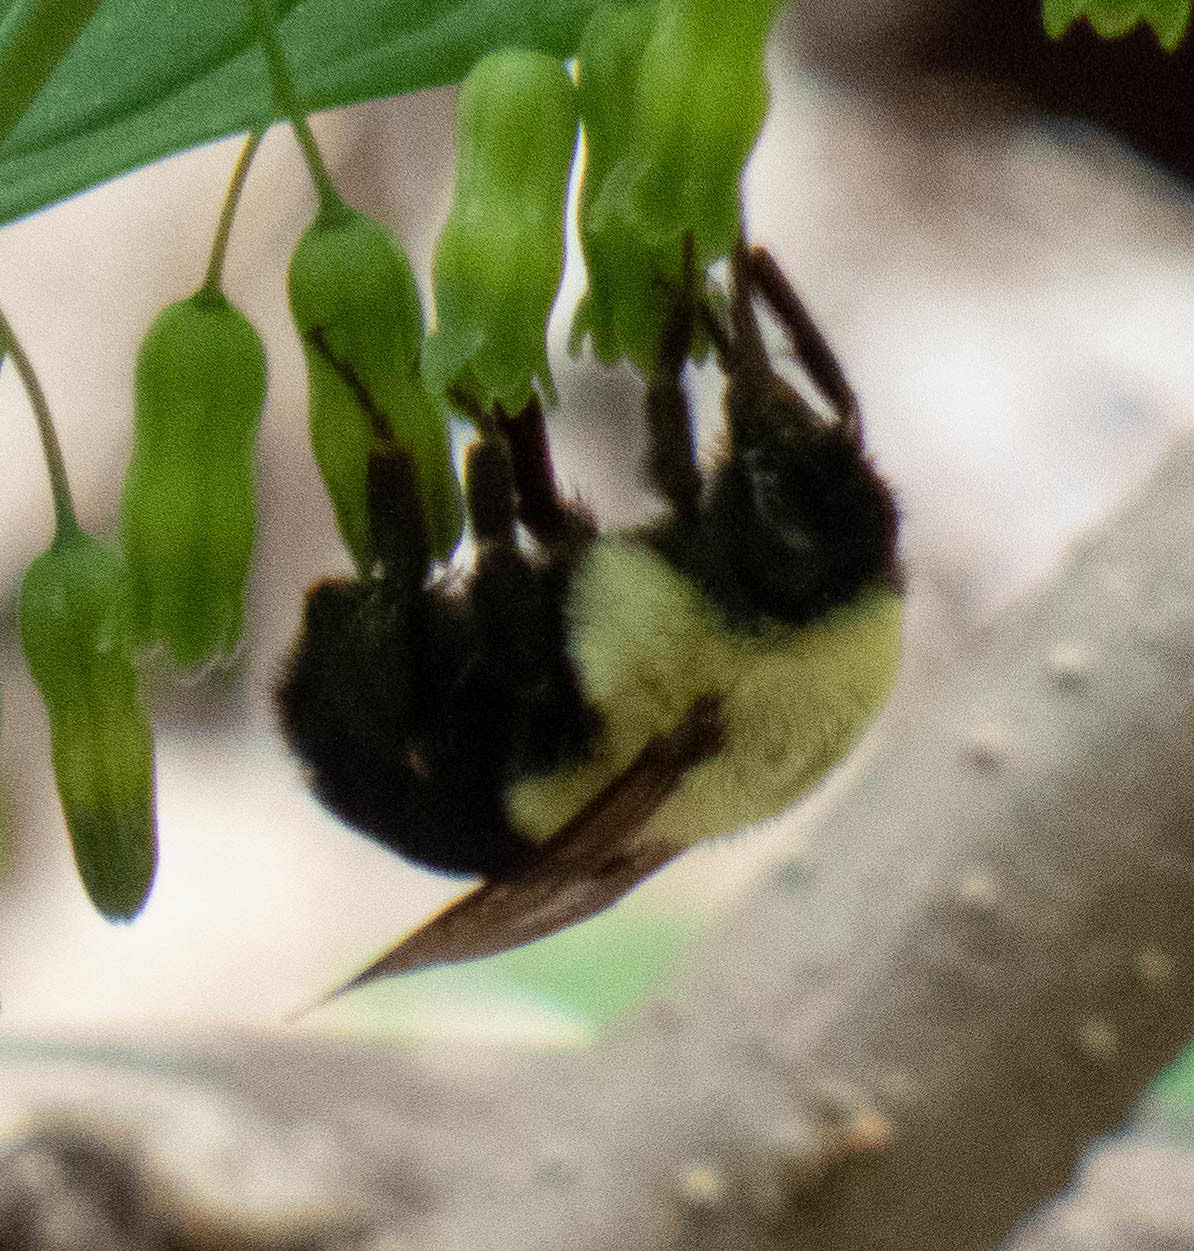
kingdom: Animalia
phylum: Arthropoda
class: Insecta
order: Hymenoptera
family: Apidae
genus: Bombus
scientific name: Bombus impatiens
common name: Common eastern bumble bee
